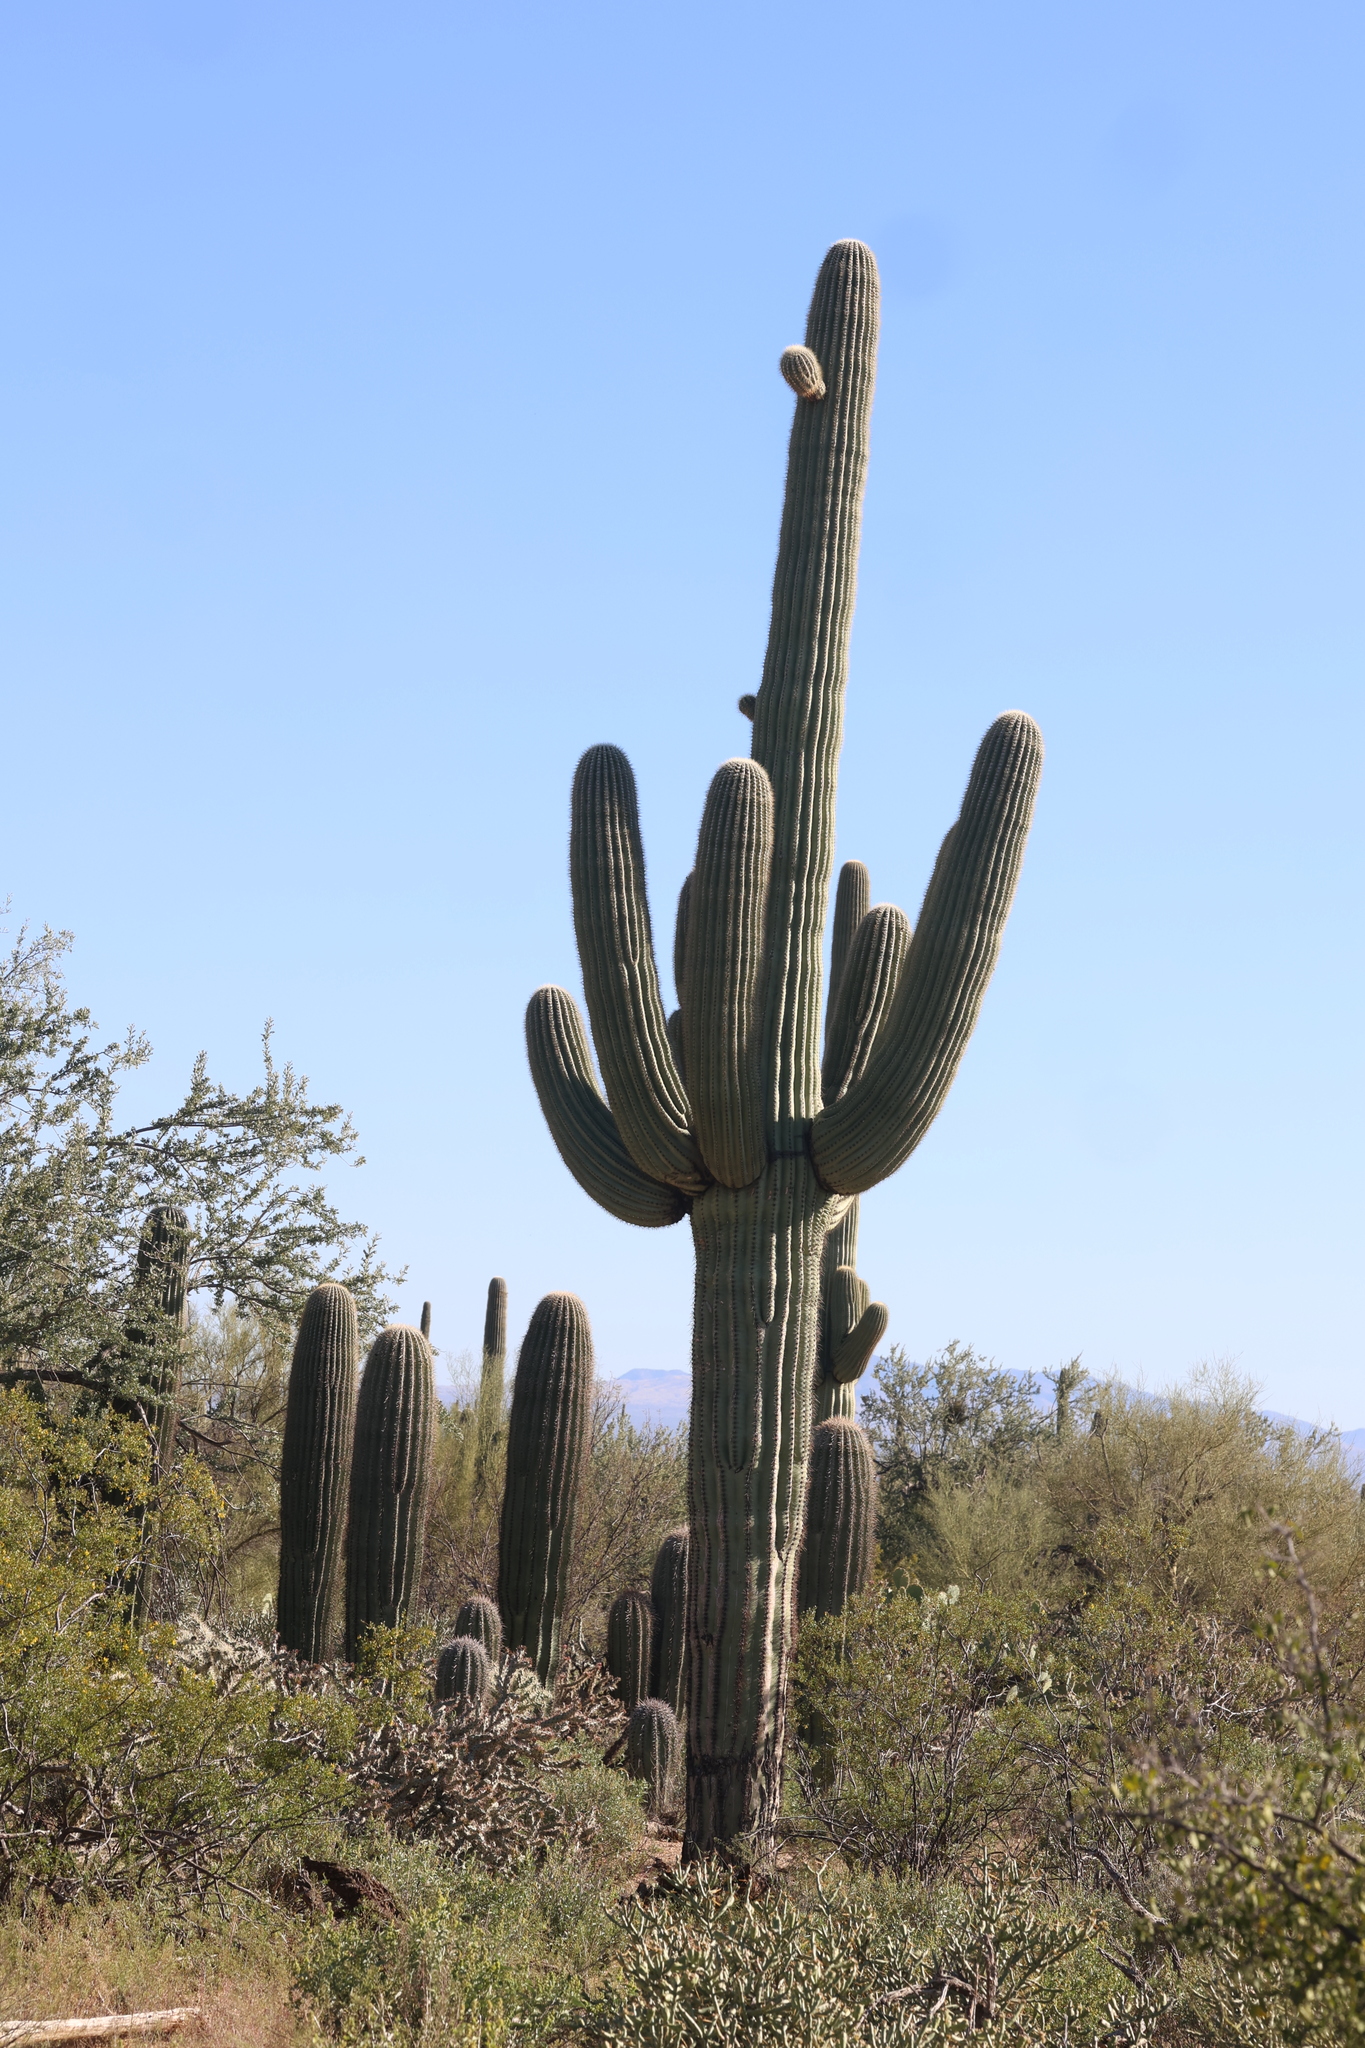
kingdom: Plantae
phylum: Tracheophyta
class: Magnoliopsida
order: Caryophyllales
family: Cactaceae
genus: Carnegiea
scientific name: Carnegiea gigantea
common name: Saguaro
